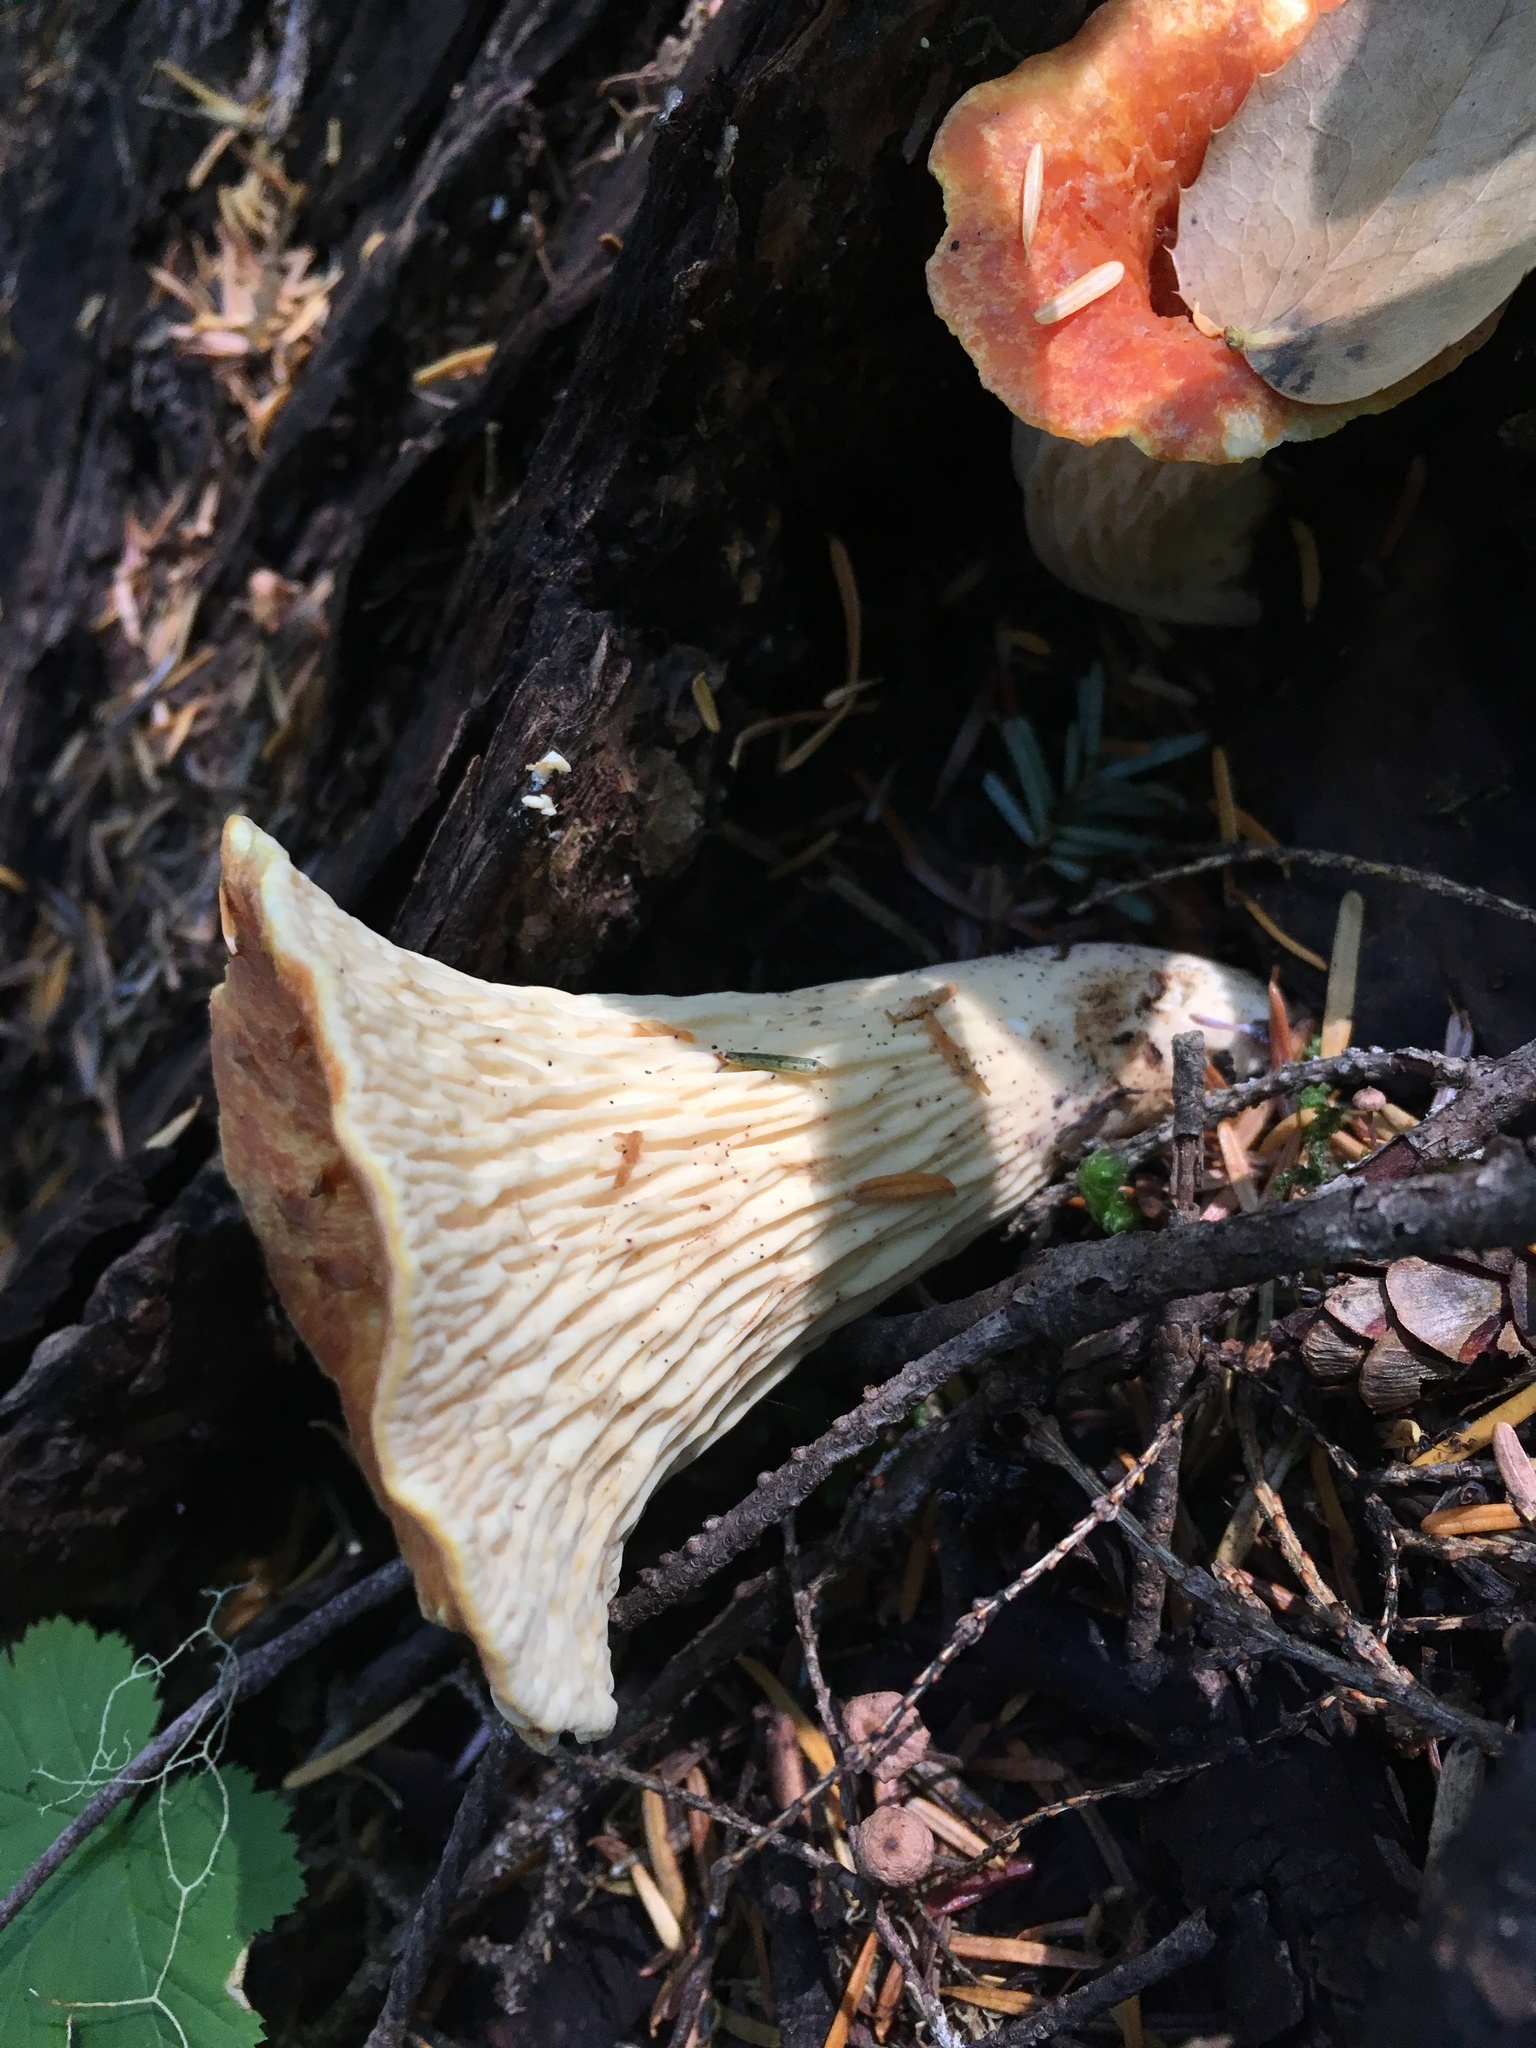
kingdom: Fungi
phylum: Basidiomycota
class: Agaricomycetes
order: Gomphales
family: Gomphaceae
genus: Turbinellus
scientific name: Turbinellus floccosus
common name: Scaly chanterelle
